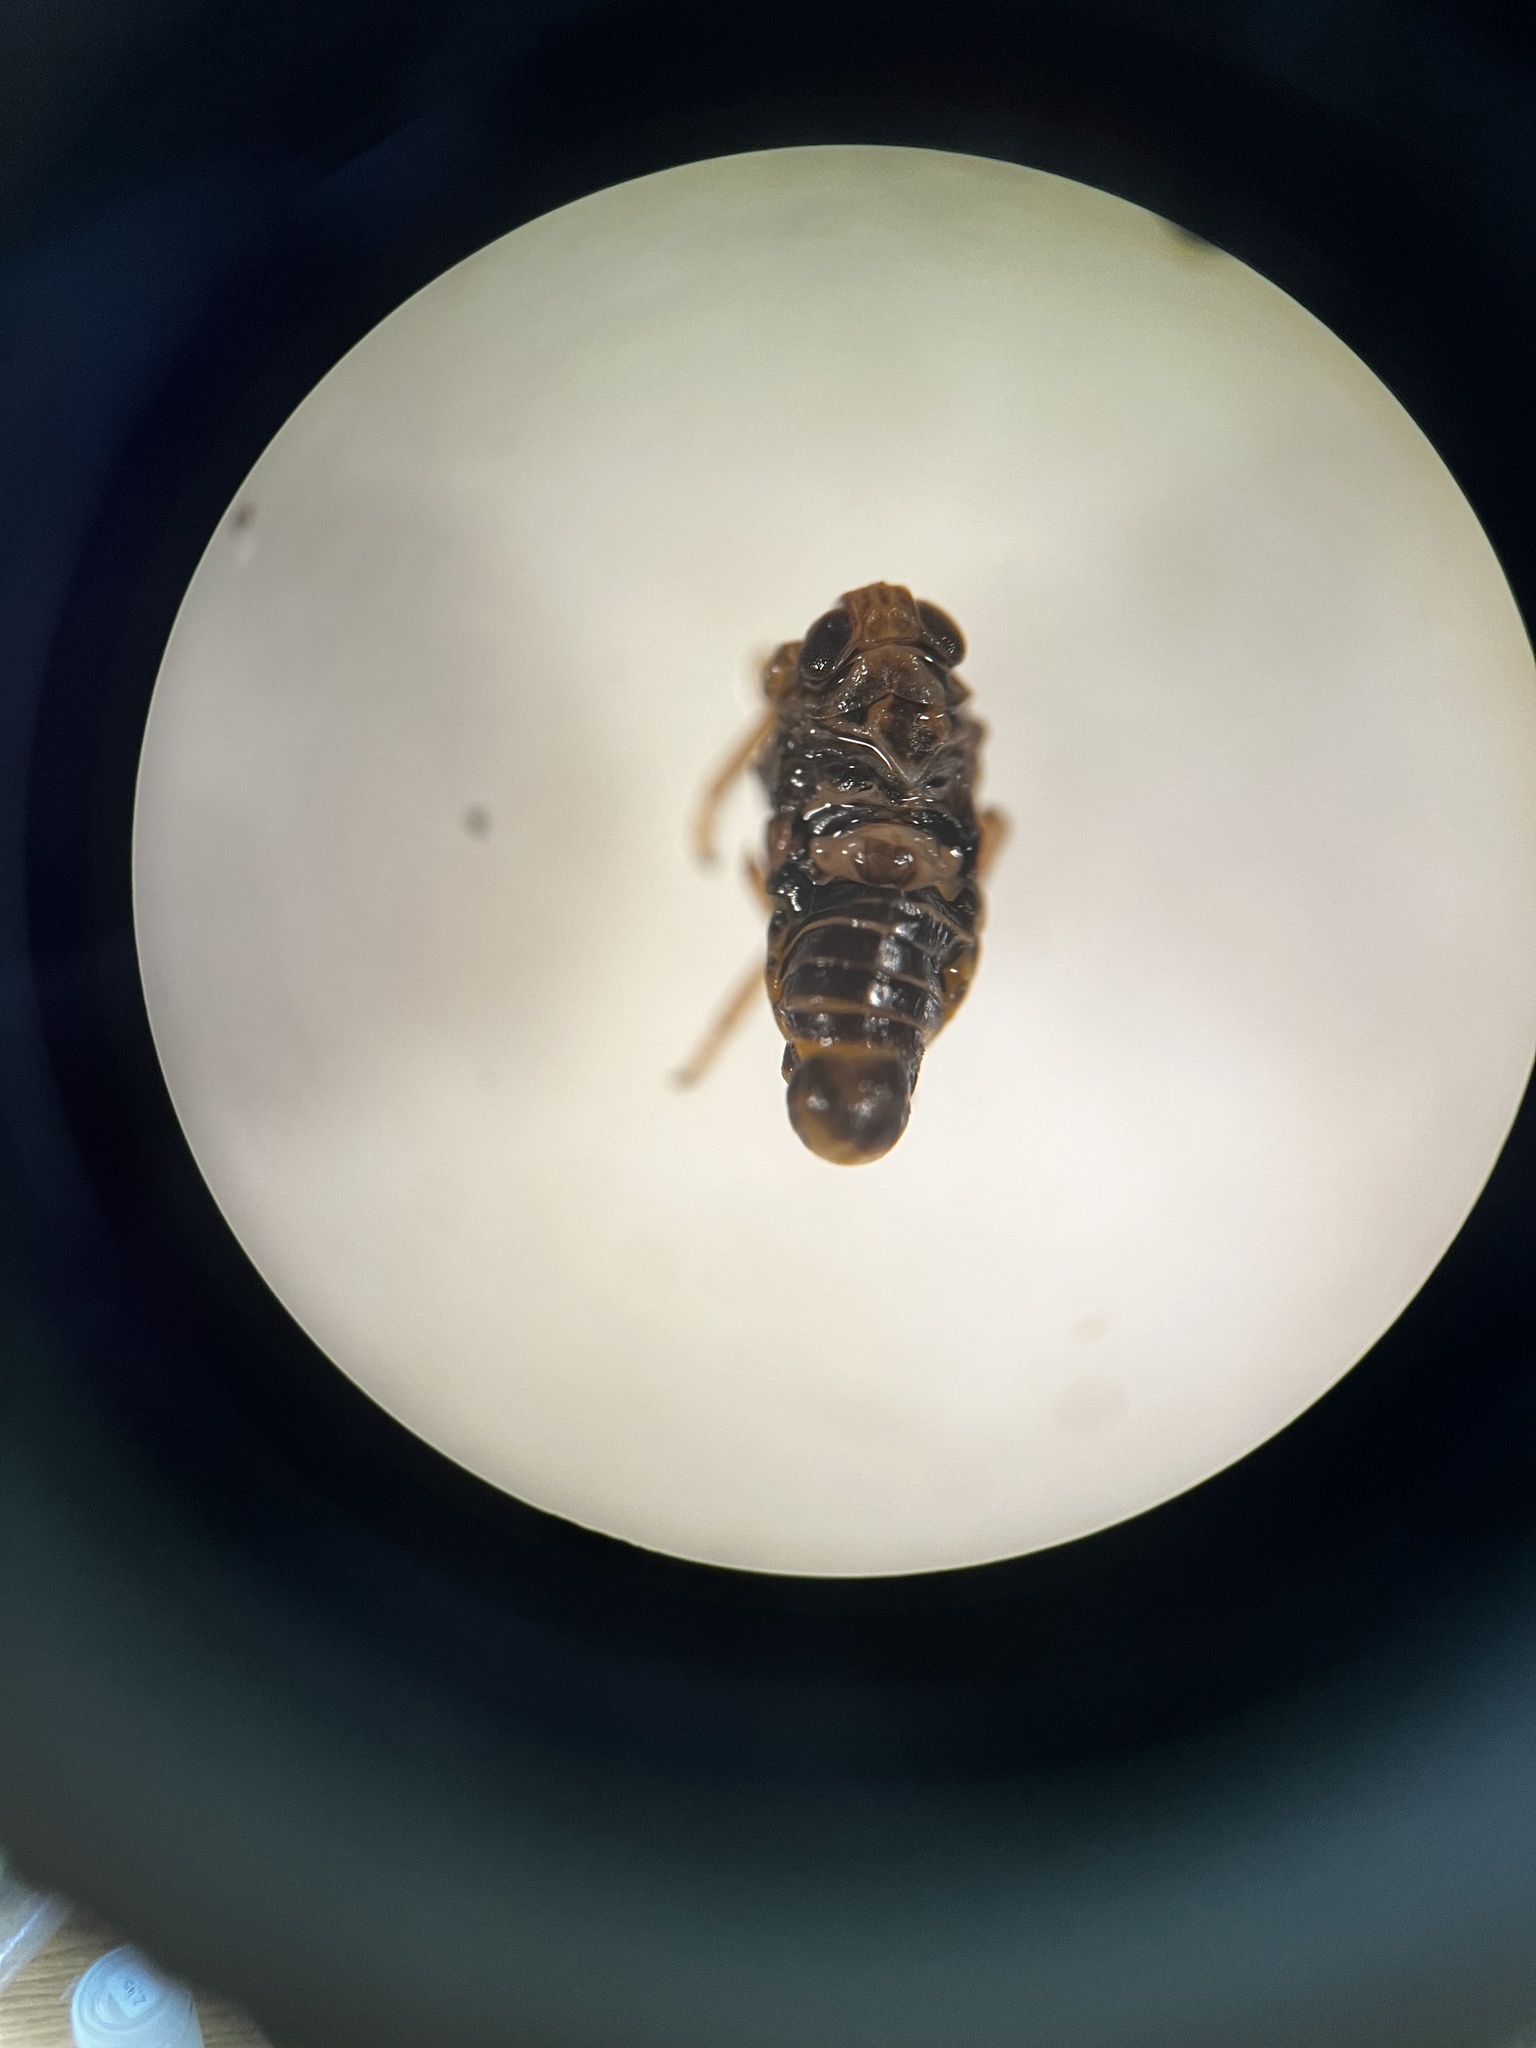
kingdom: Animalia
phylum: Arthropoda
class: Insecta
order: Hemiptera
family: Delphacidae
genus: Javesella
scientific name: Javesella dubia
